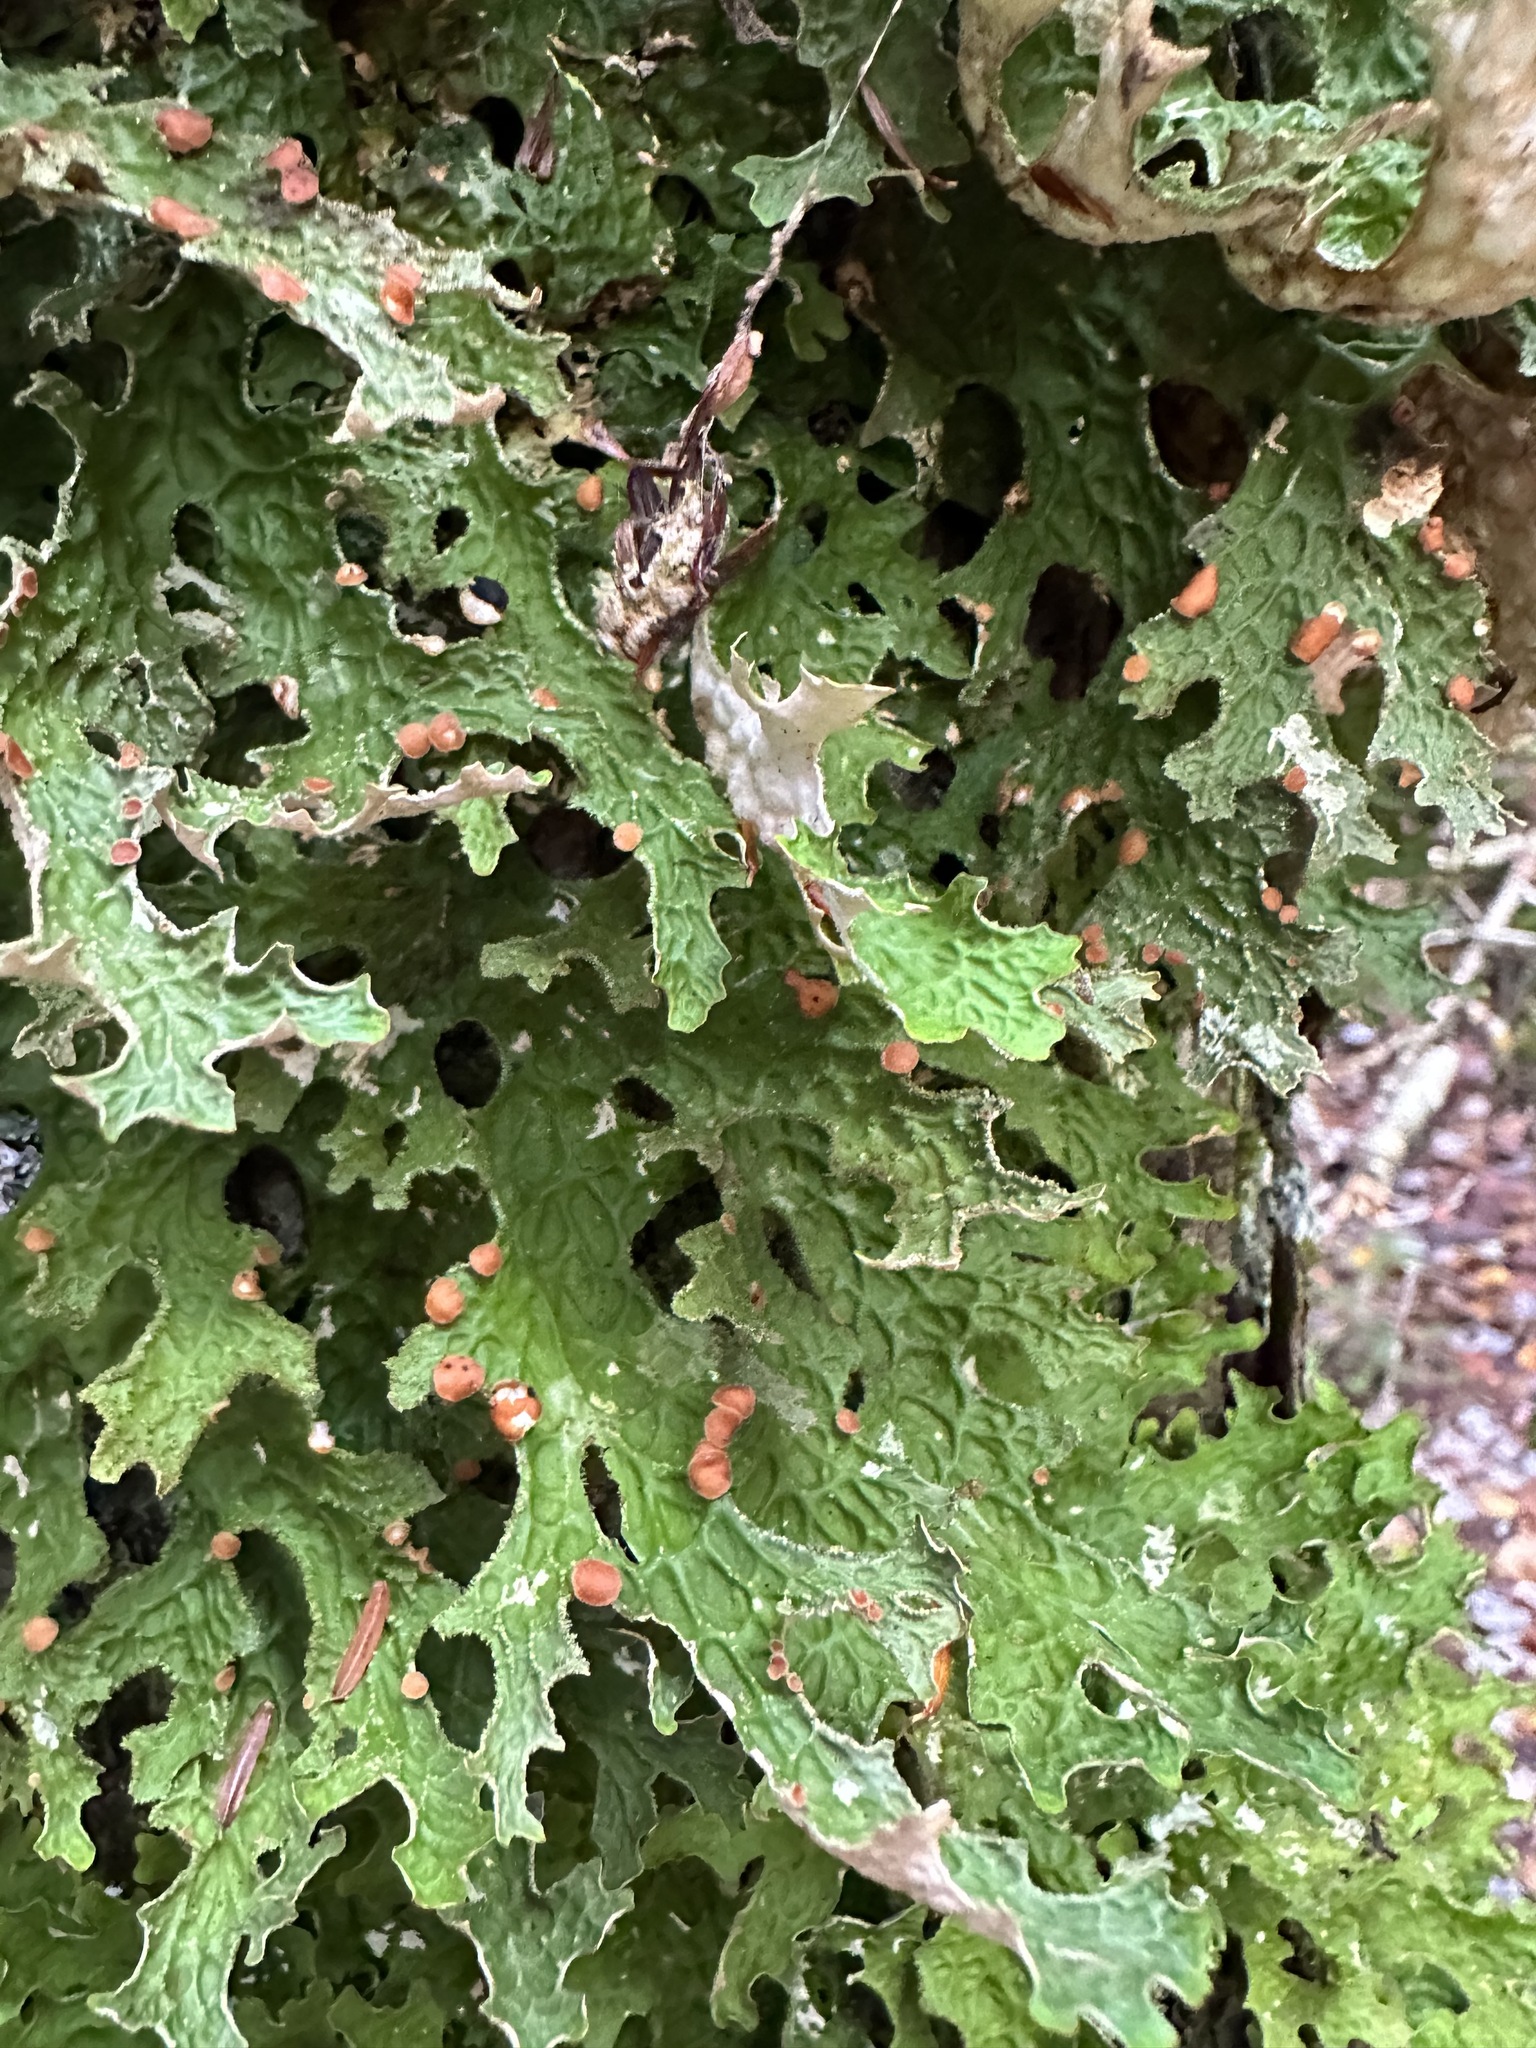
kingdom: Fungi
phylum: Ascomycota
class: Lecanoromycetes
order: Peltigerales
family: Lobariaceae
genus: Lobaria
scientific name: Lobaria pulmonaria
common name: Lungwort
